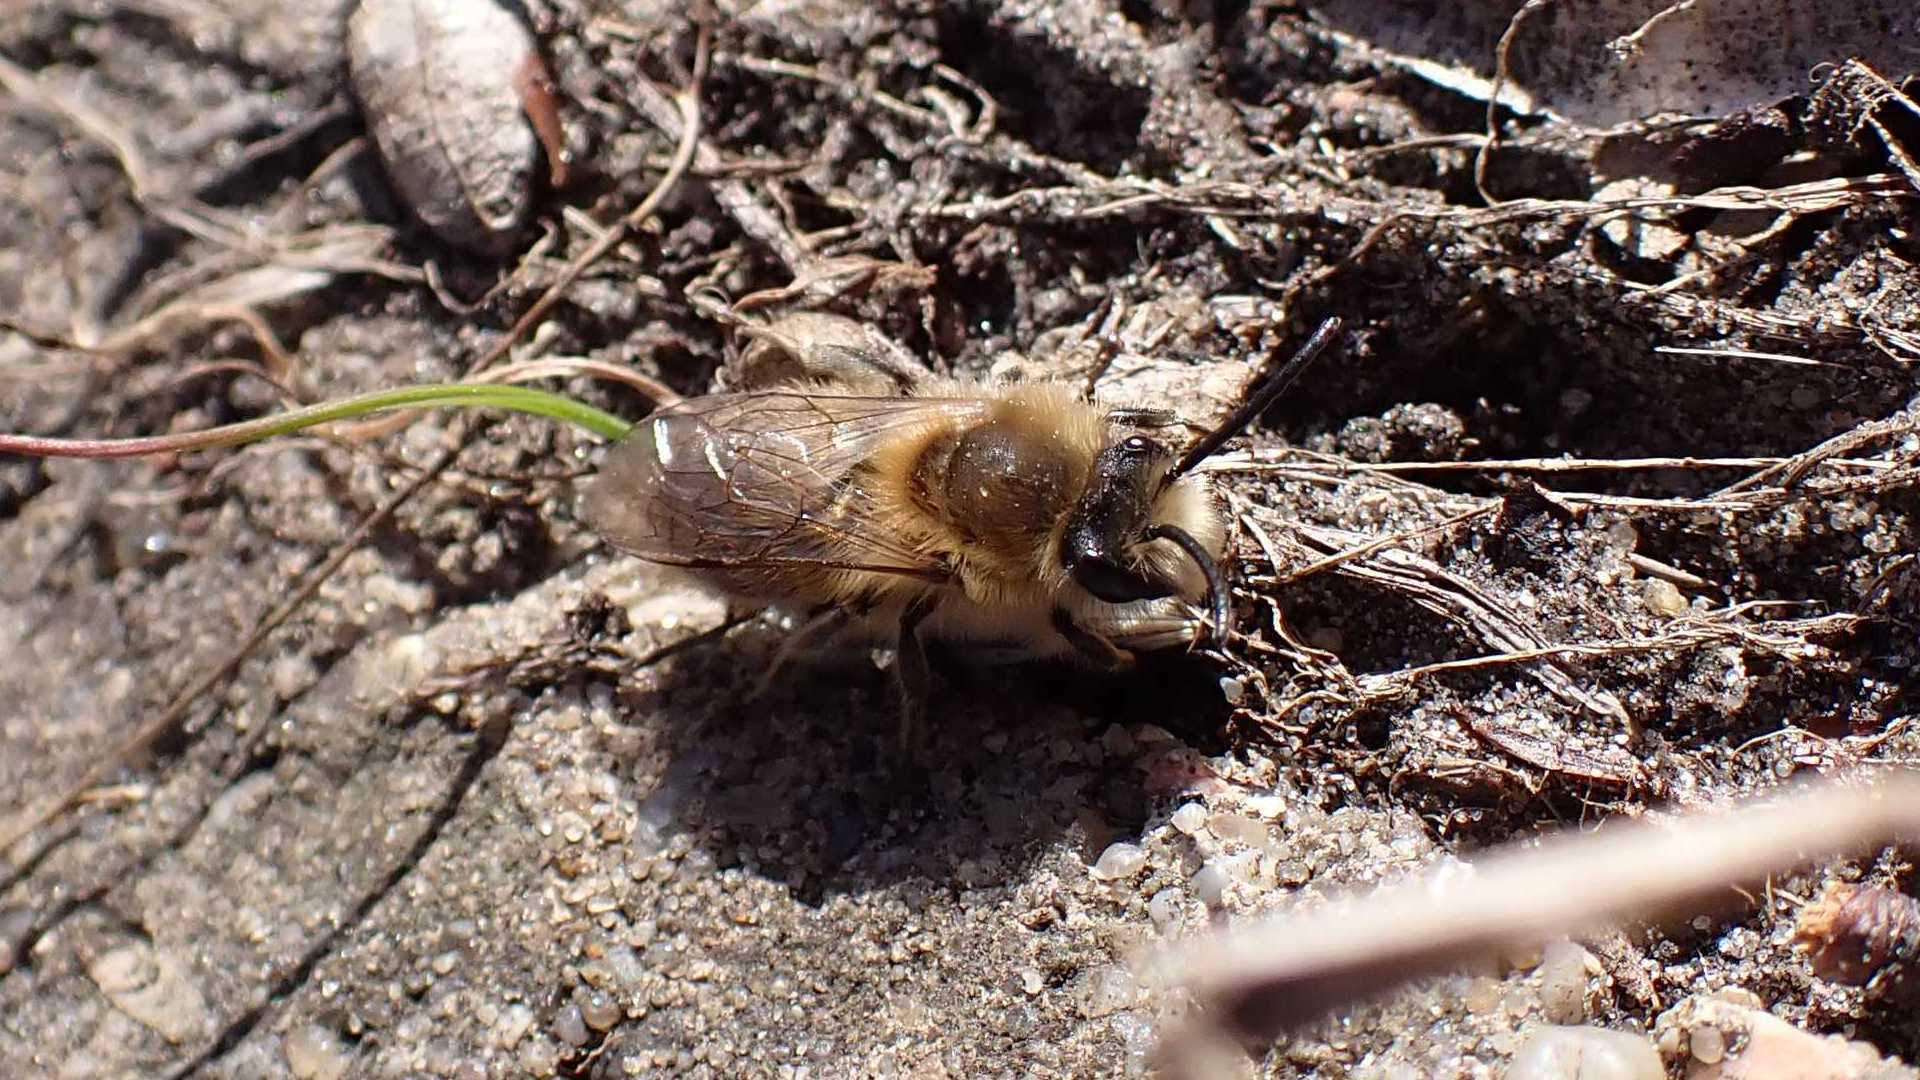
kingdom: Animalia
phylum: Arthropoda
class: Insecta
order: Hymenoptera
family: Colletidae
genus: Colletes
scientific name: Colletes cunicularius
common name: Early colletes
